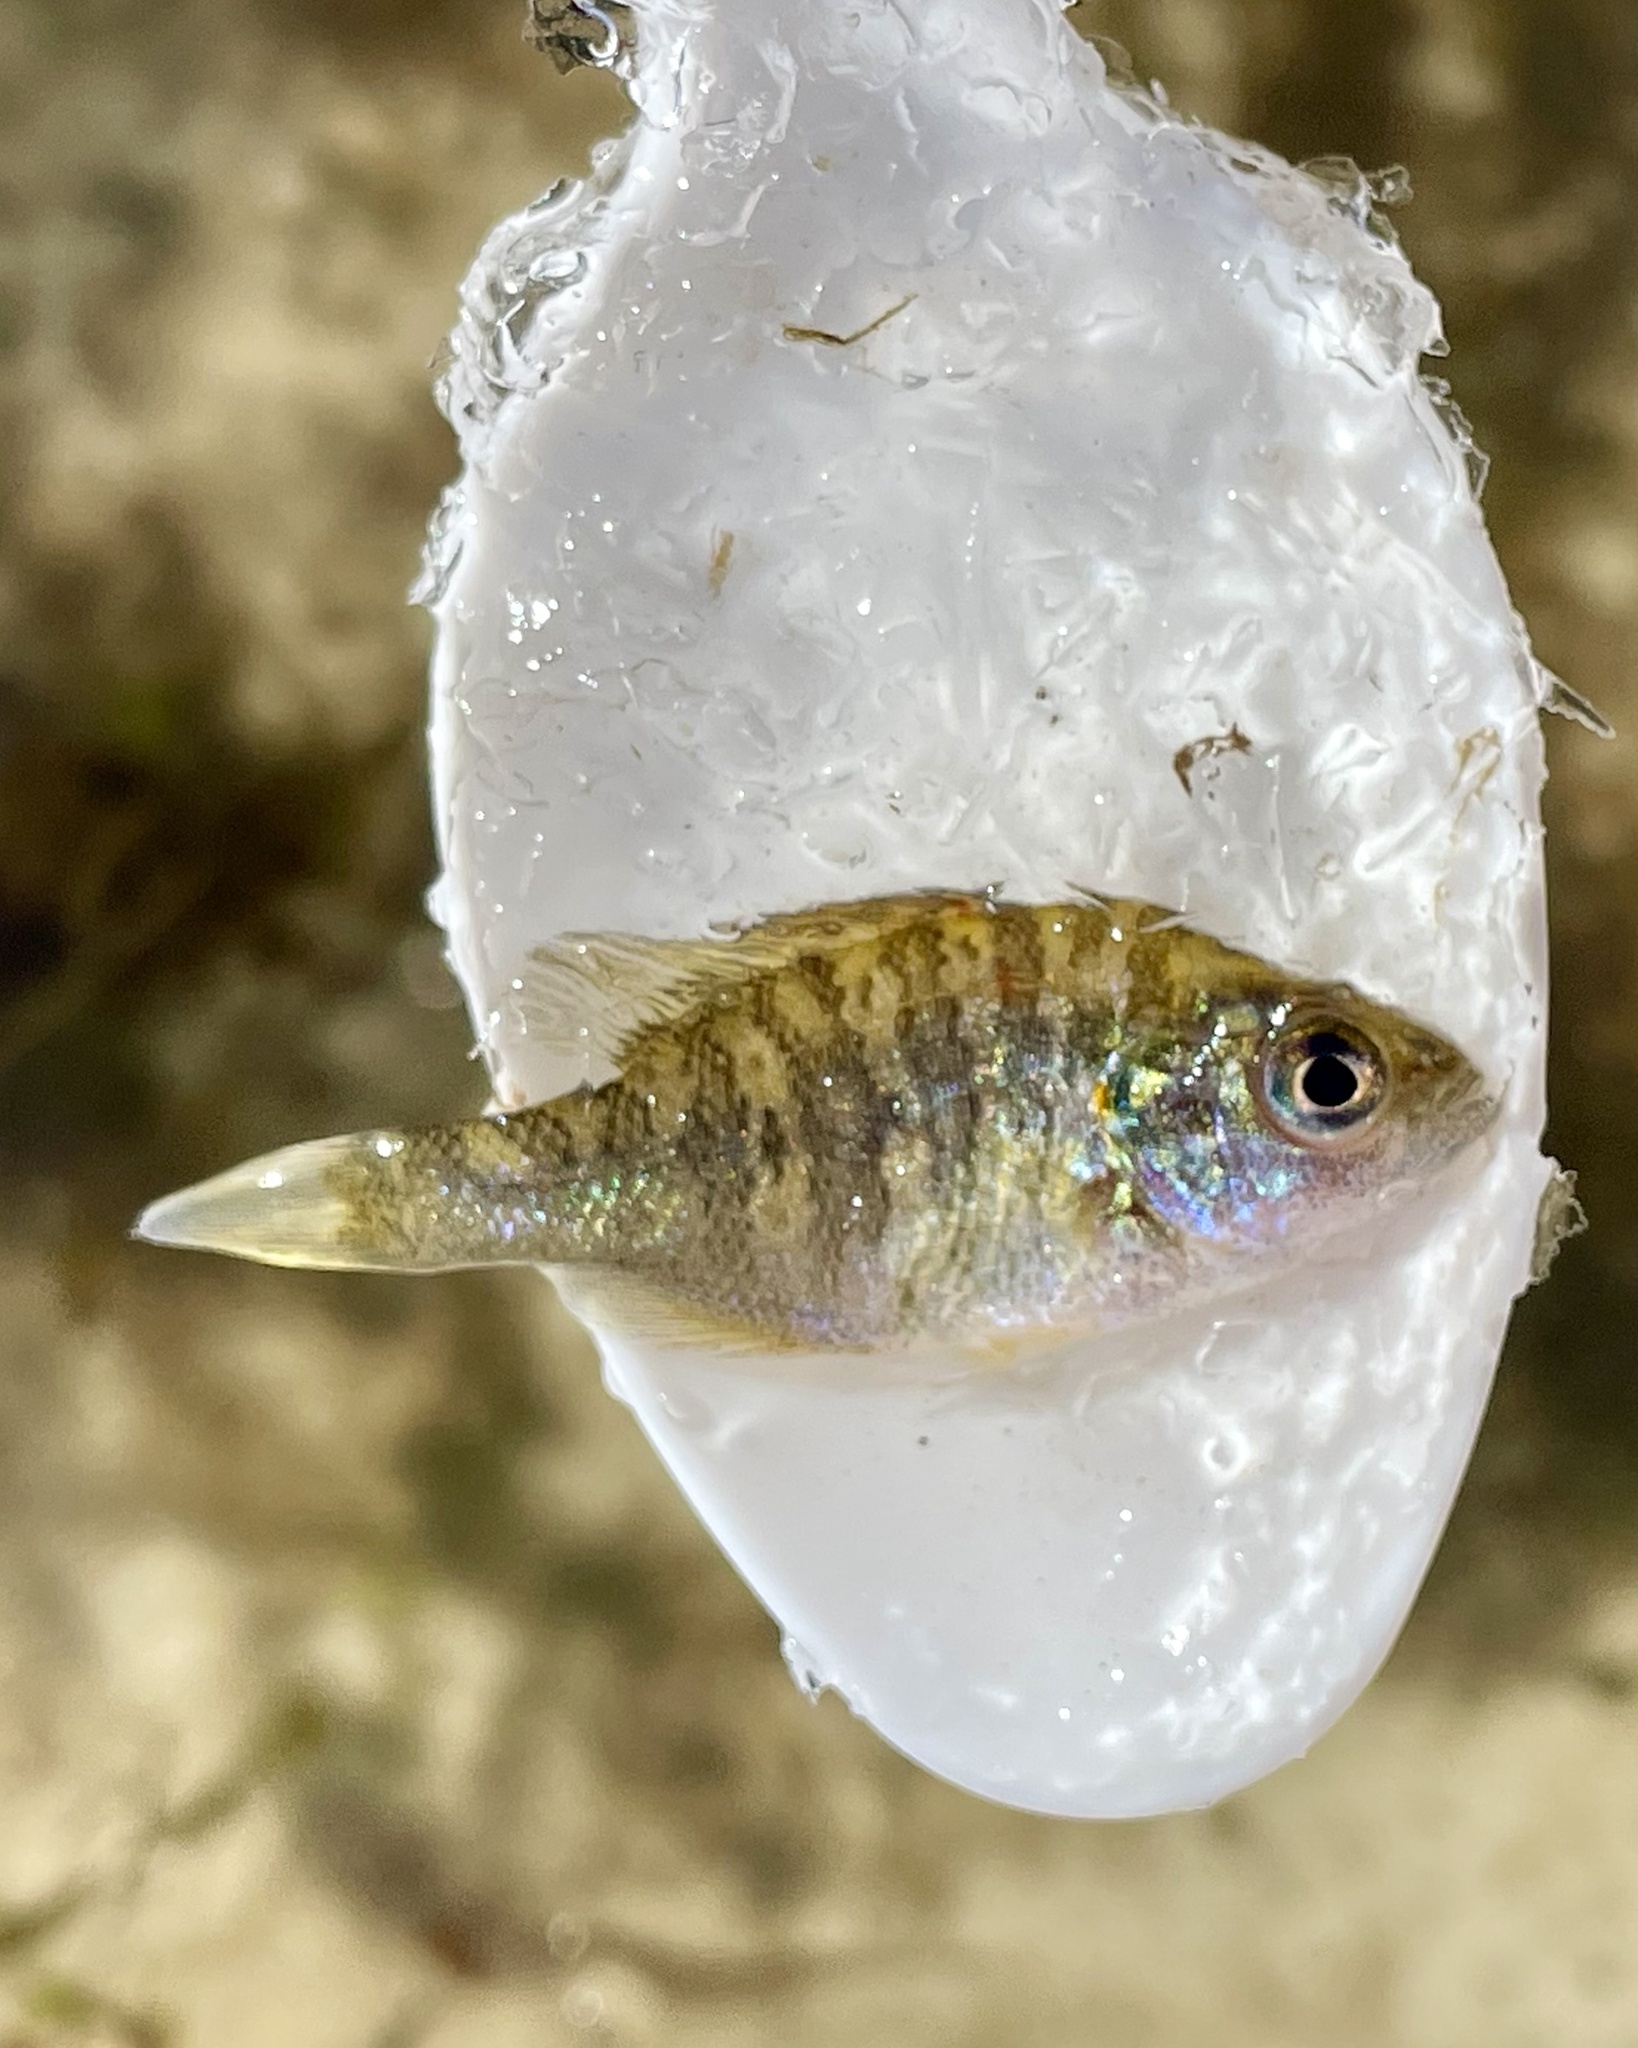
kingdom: Animalia
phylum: Chordata
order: Perciformes
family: Centrarchidae
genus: Lepomis
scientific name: Lepomis gibbosus
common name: Pumpkinseed
